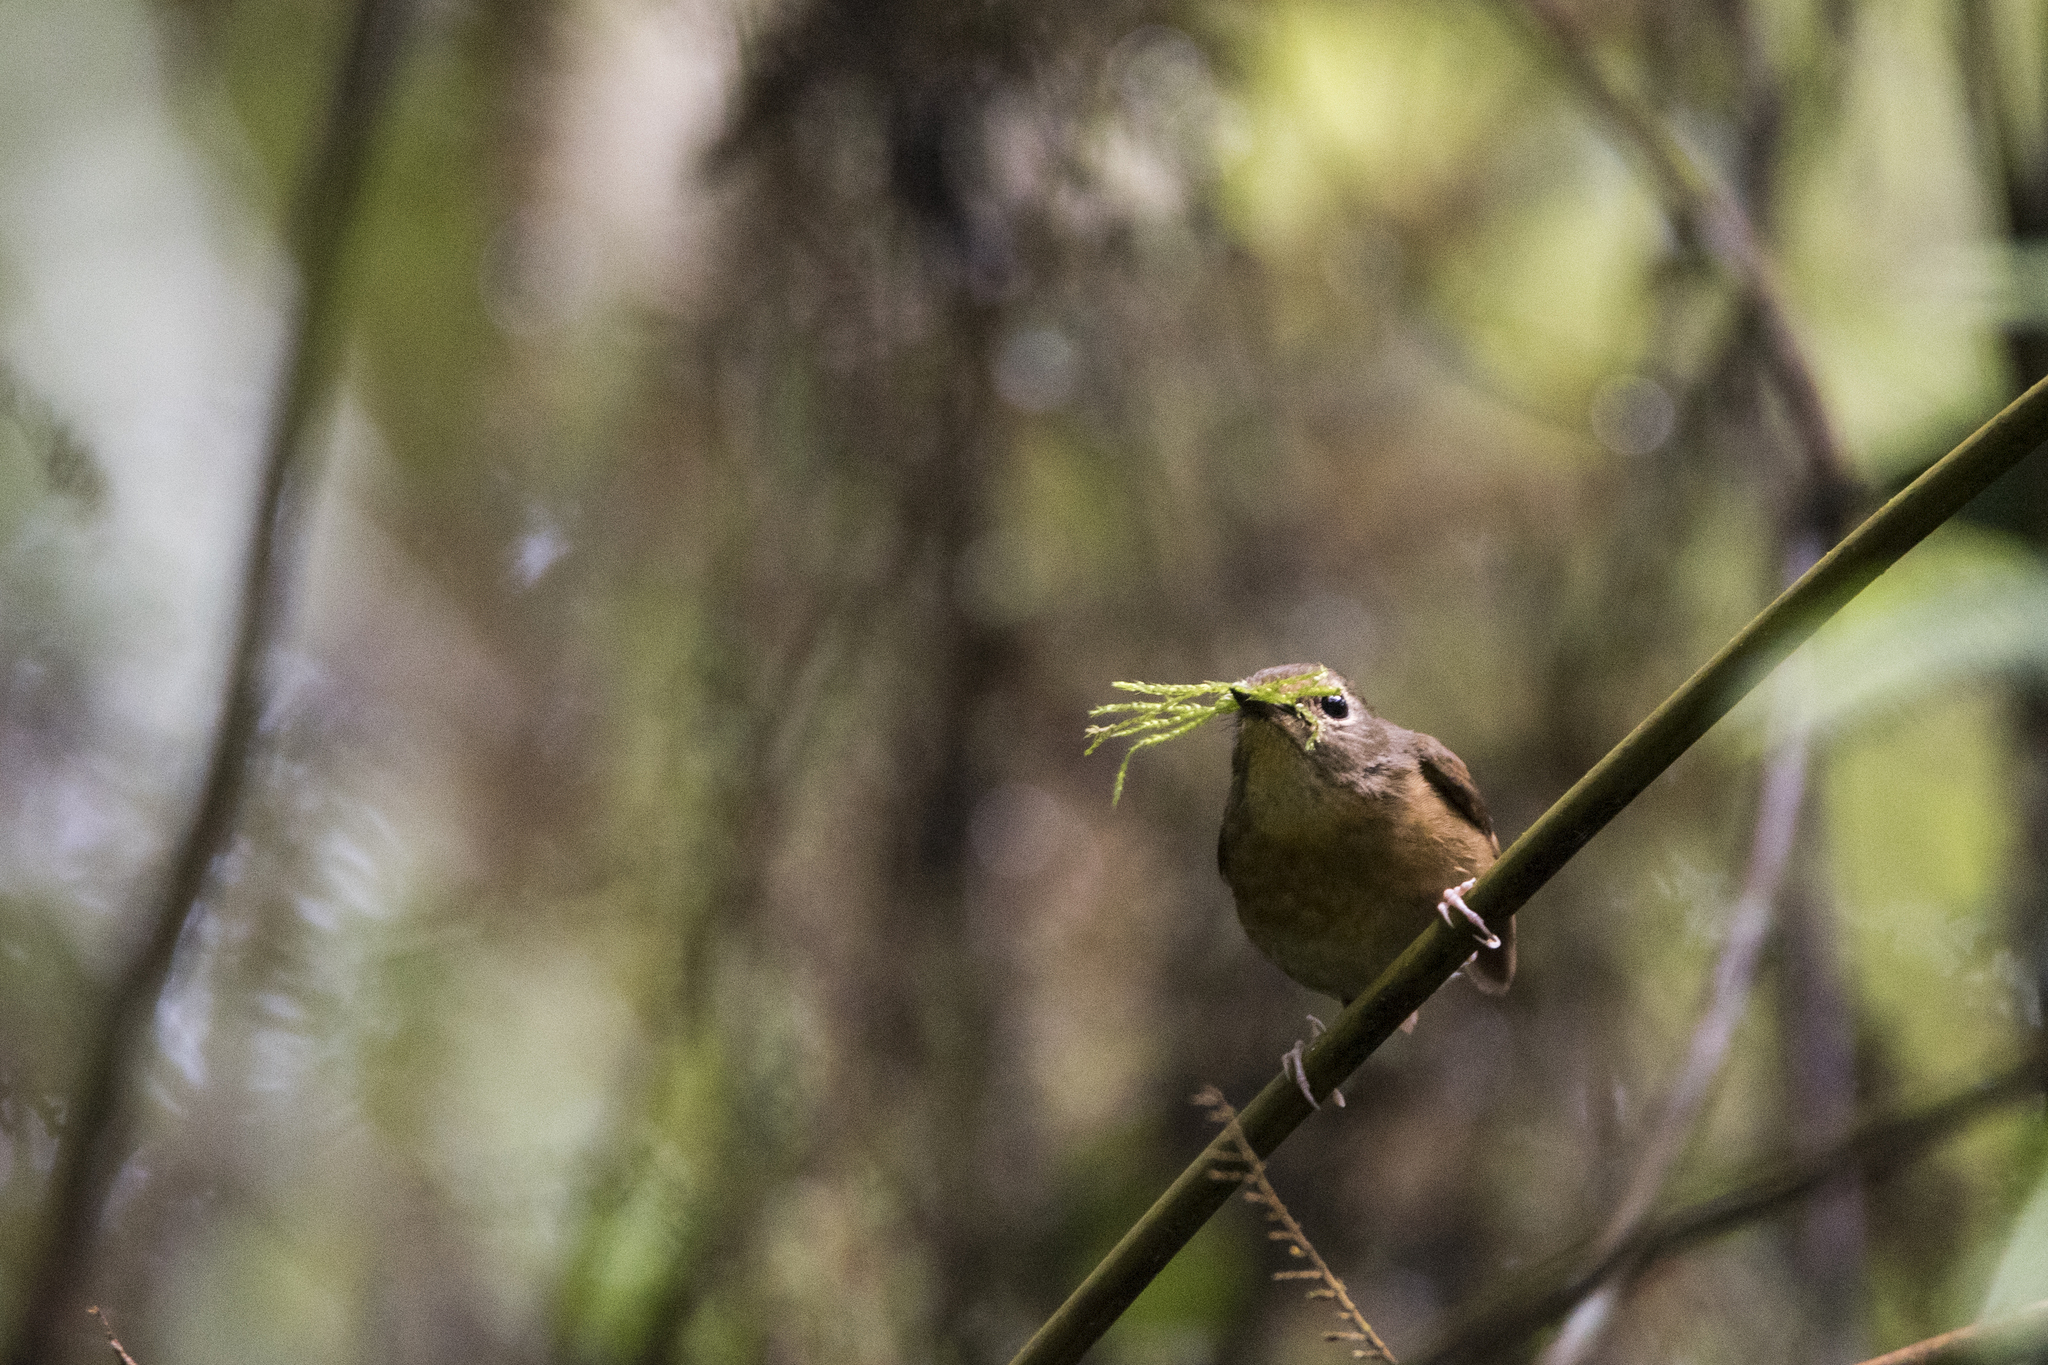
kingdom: Animalia
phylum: Chordata
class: Aves
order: Passeriformes
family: Muscicapidae
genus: Ficedula
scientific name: Ficedula hyperythra
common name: Snowy-browed flycatcher
